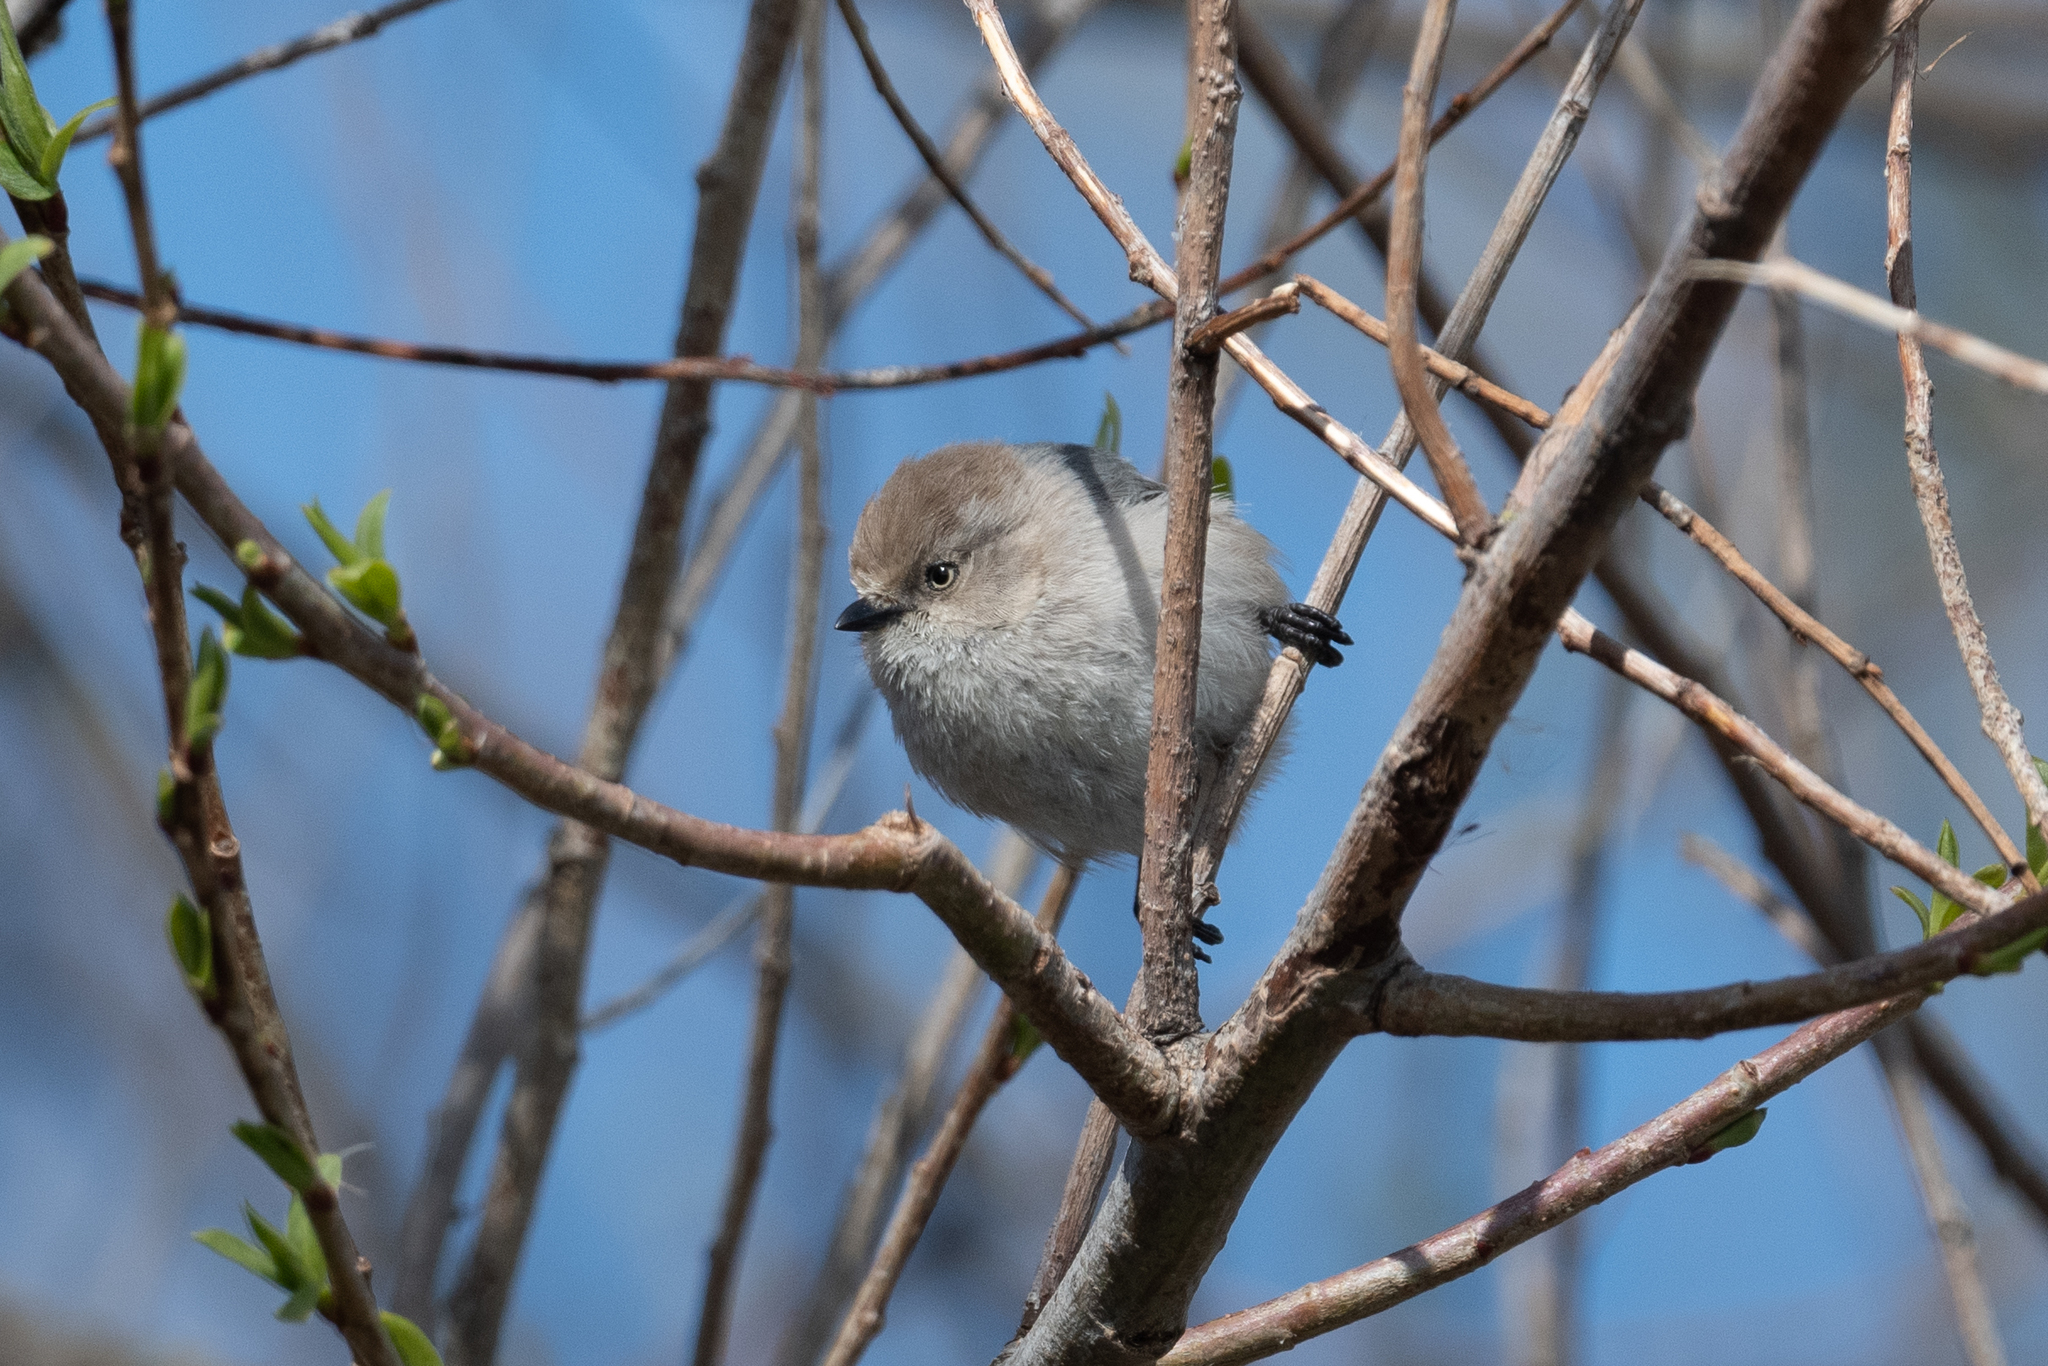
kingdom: Animalia
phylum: Chordata
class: Aves
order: Passeriformes
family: Aegithalidae
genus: Psaltriparus
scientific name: Psaltriparus minimus
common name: American bushtit
